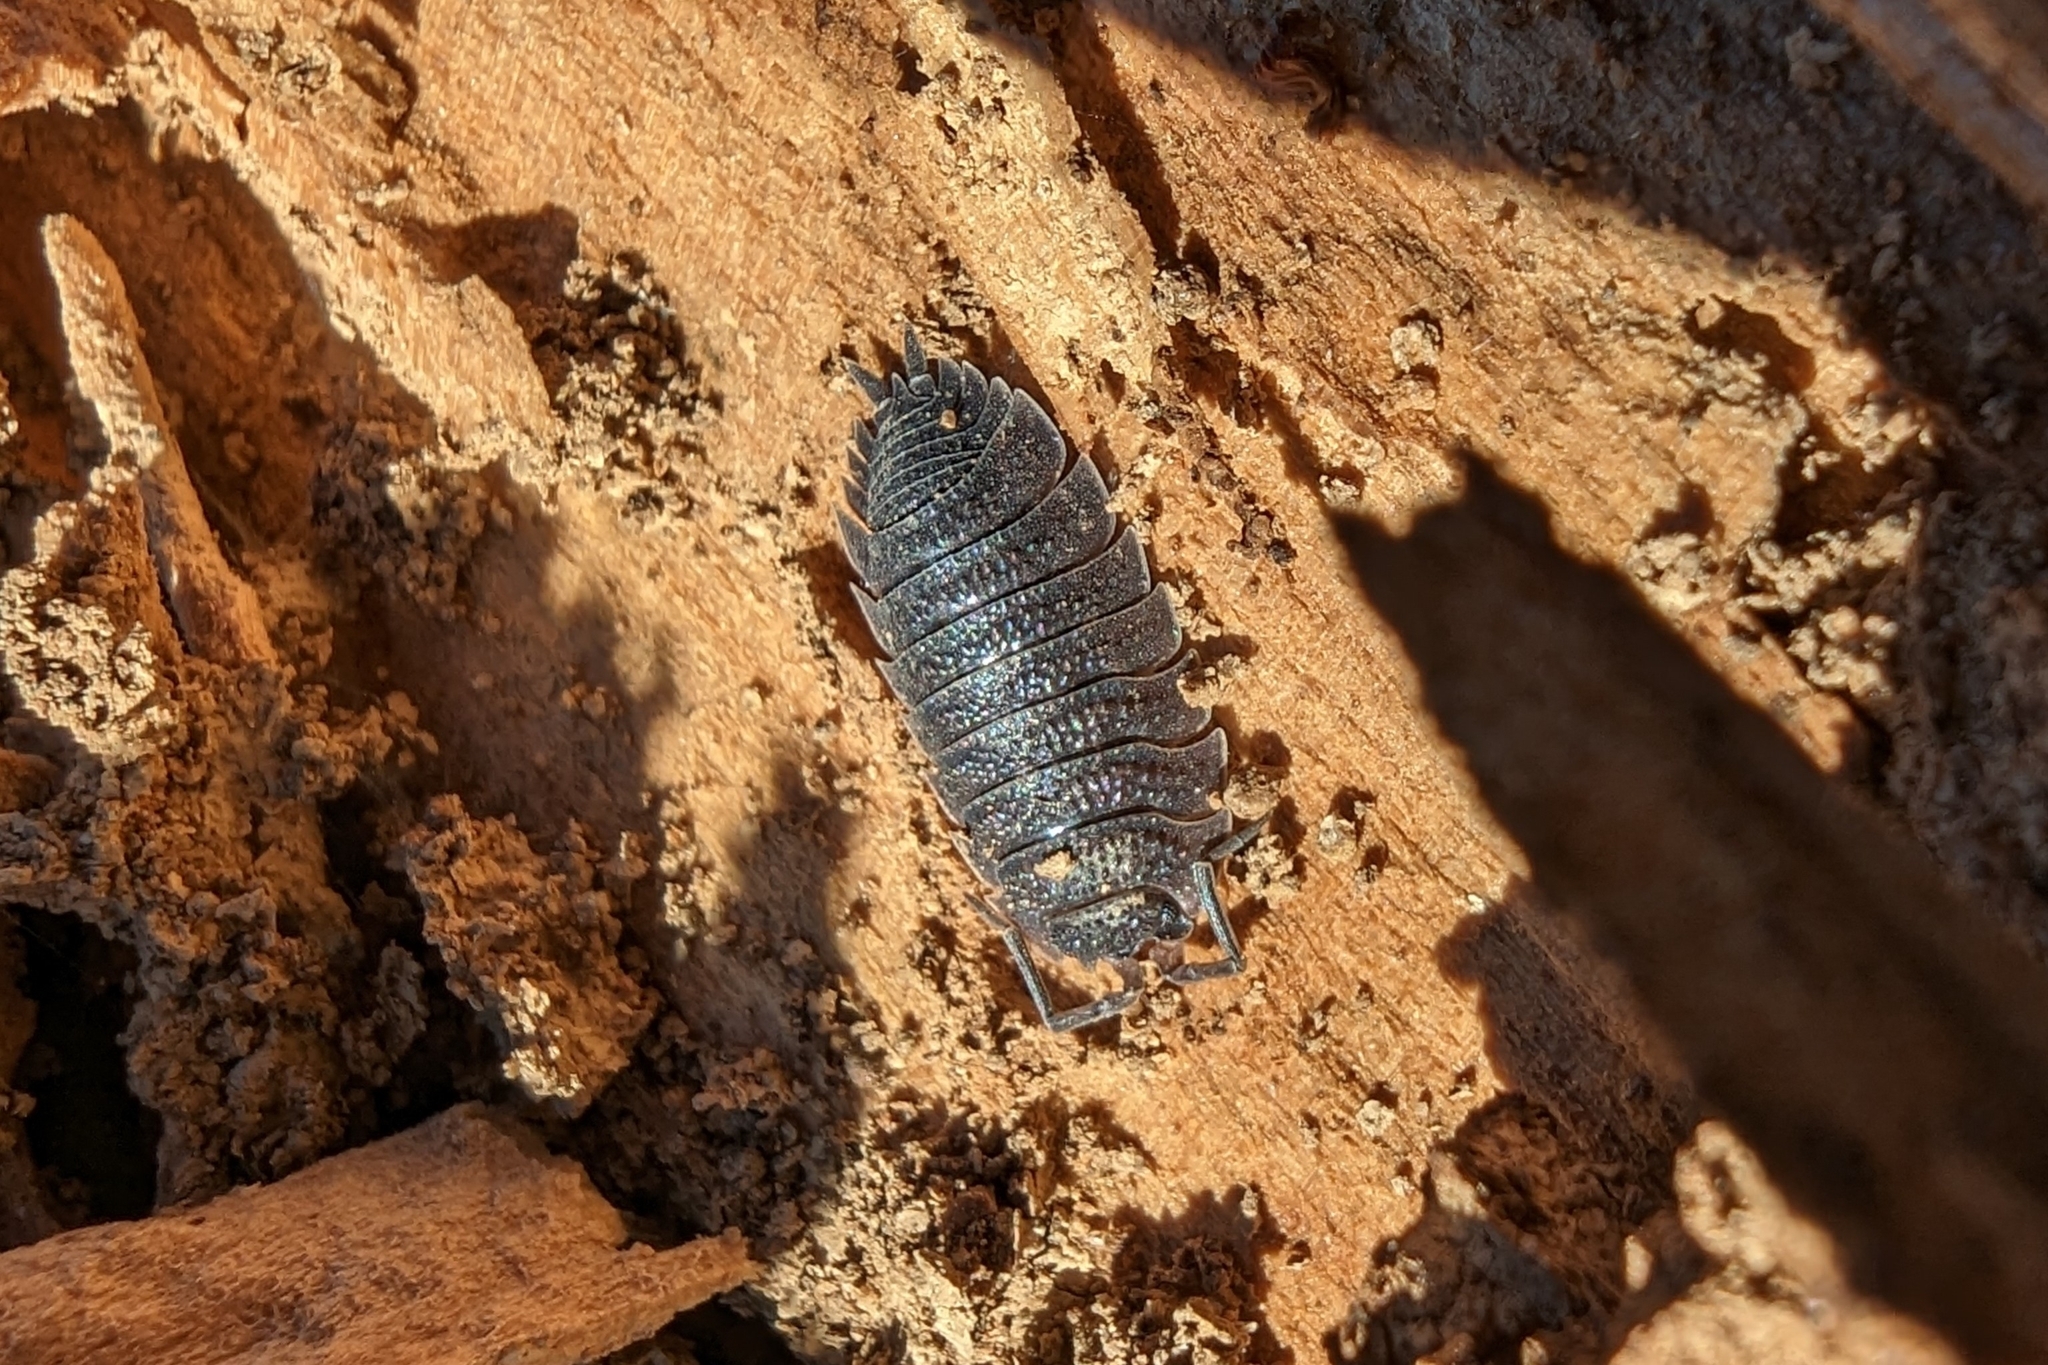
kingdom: Animalia
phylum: Arthropoda
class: Malacostraca
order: Isopoda
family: Porcellionidae
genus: Porcellio
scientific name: Porcellio scaber
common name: Common rough woodlouse
